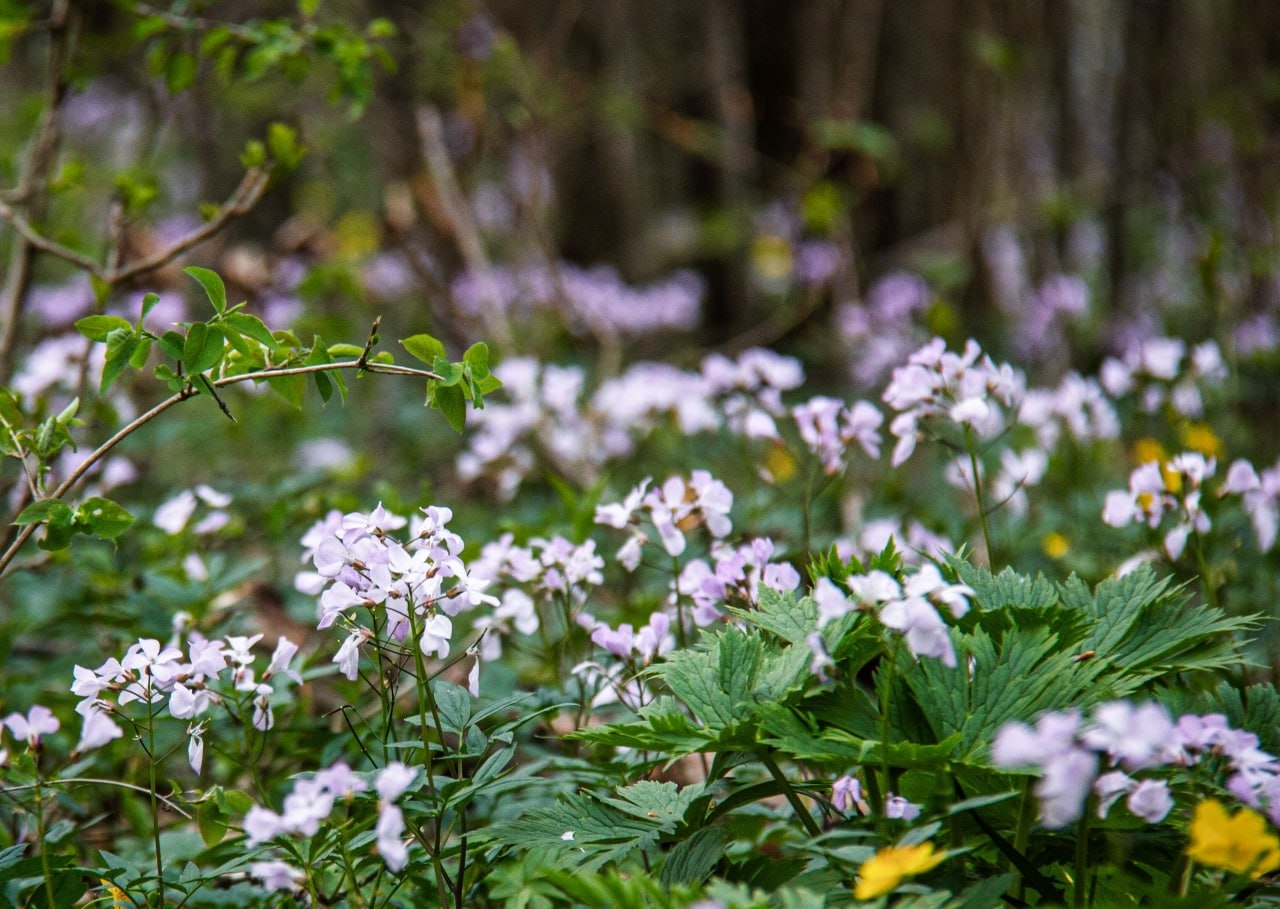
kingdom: Plantae
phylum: Tracheophyta
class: Magnoliopsida
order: Brassicales
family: Brassicaceae
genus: Cardamine
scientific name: Cardamine quinquefolia
